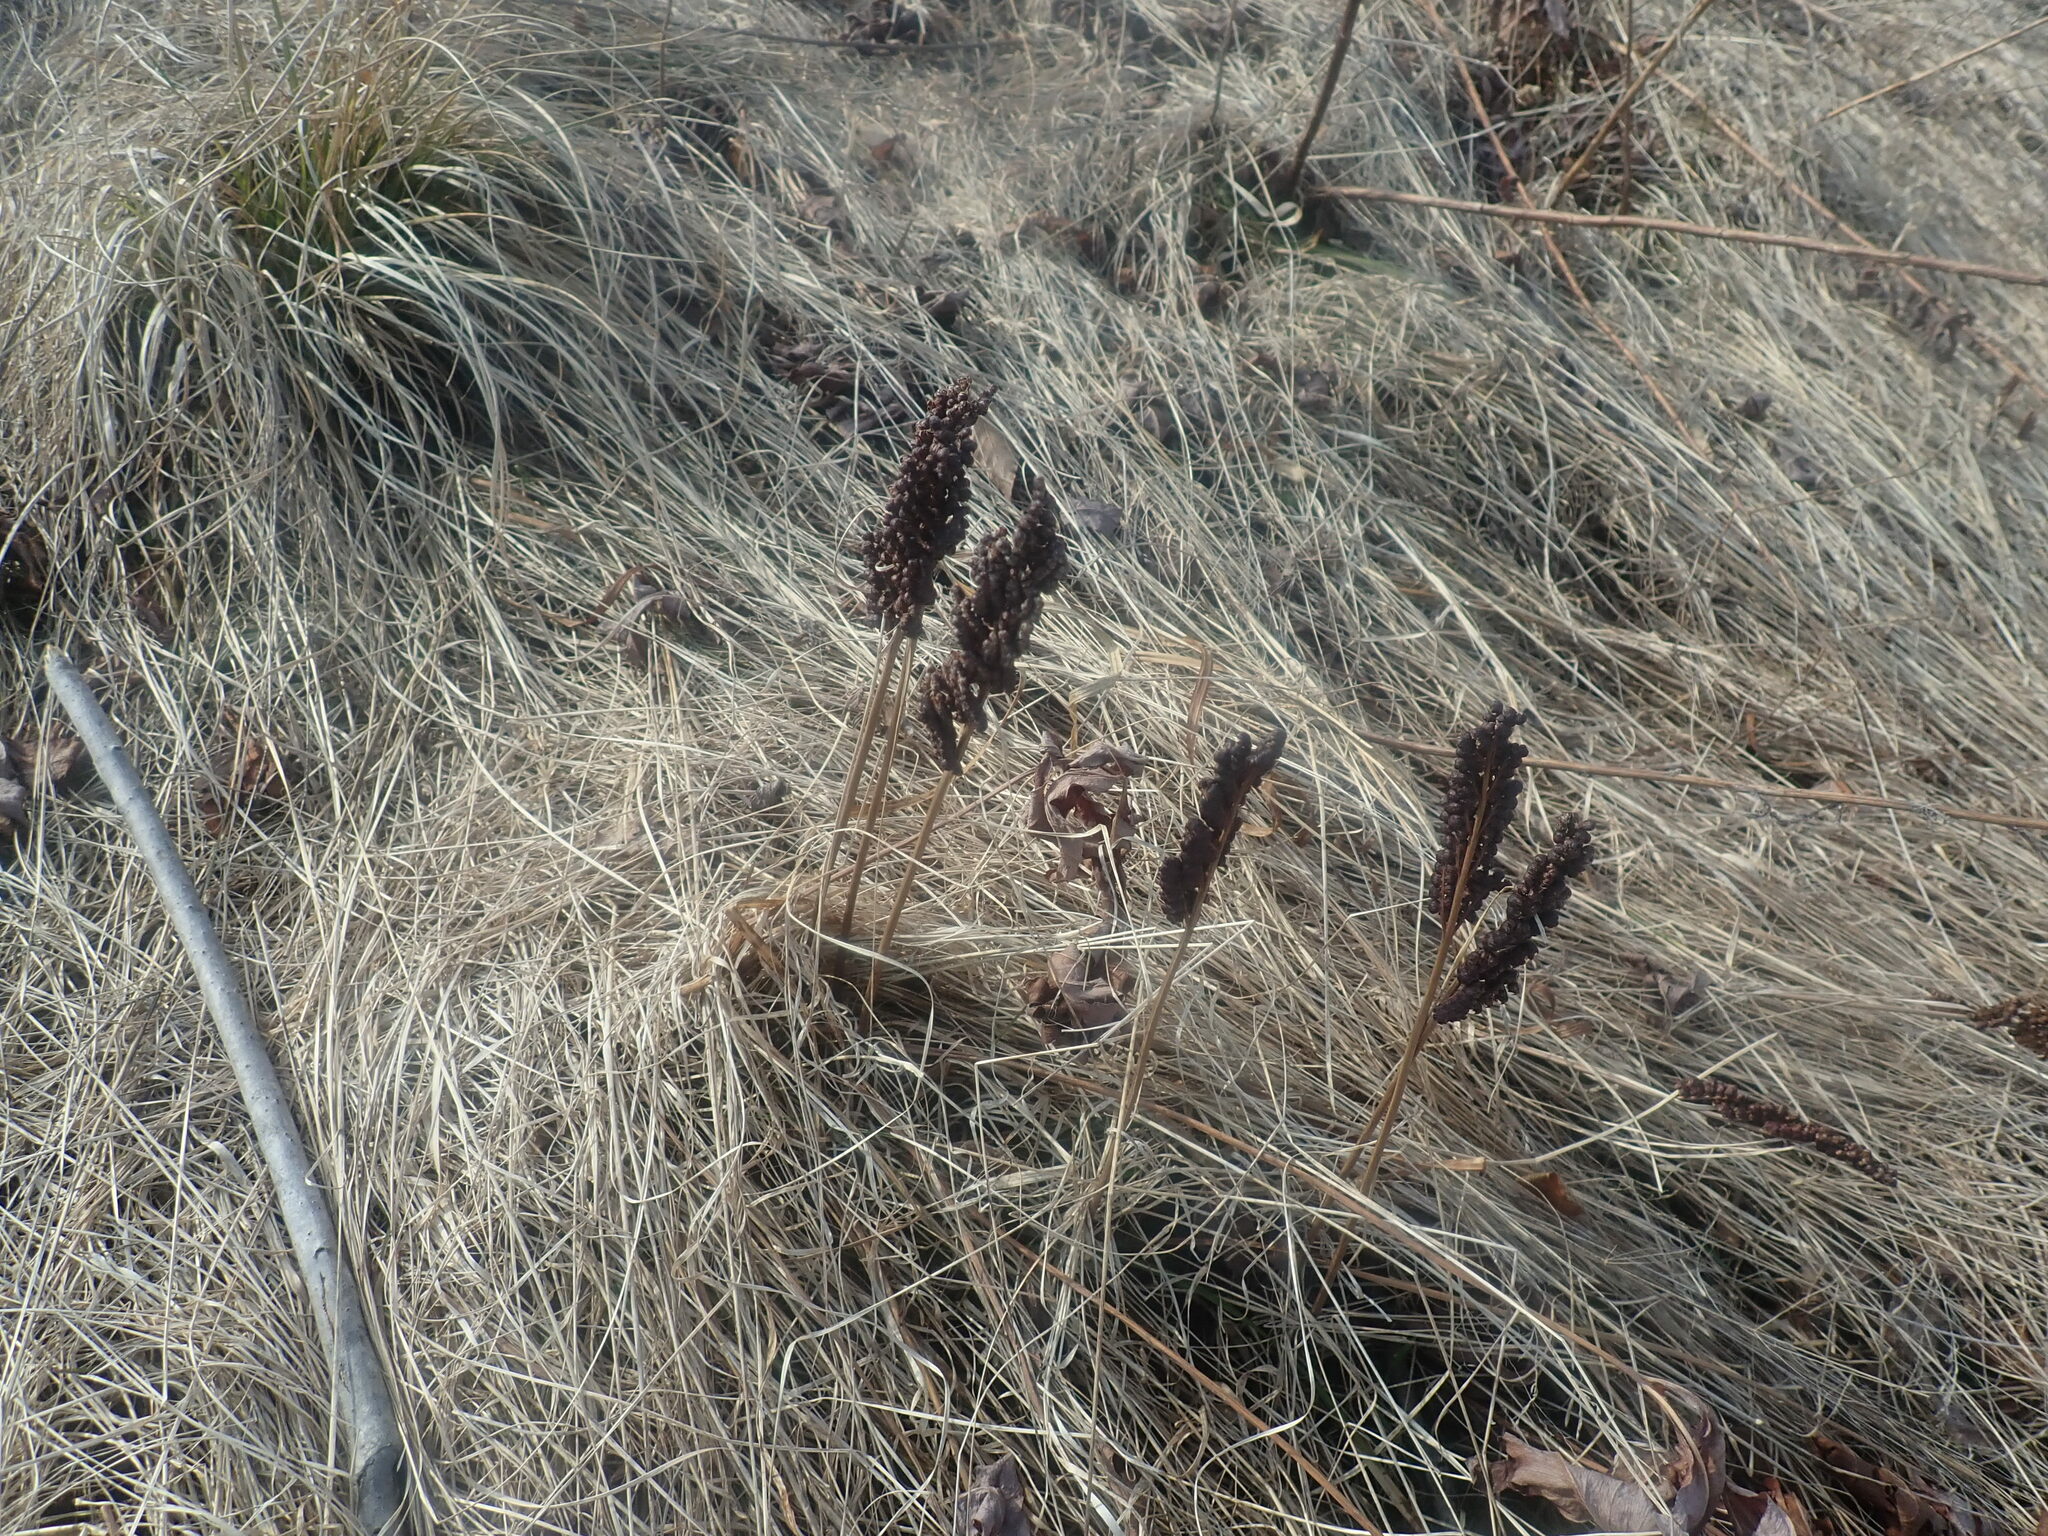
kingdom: Plantae
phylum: Tracheophyta
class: Polypodiopsida
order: Polypodiales
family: Onocleaceae
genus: Onoclea
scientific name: Onoclea sensibilis
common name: Sensitive fern
